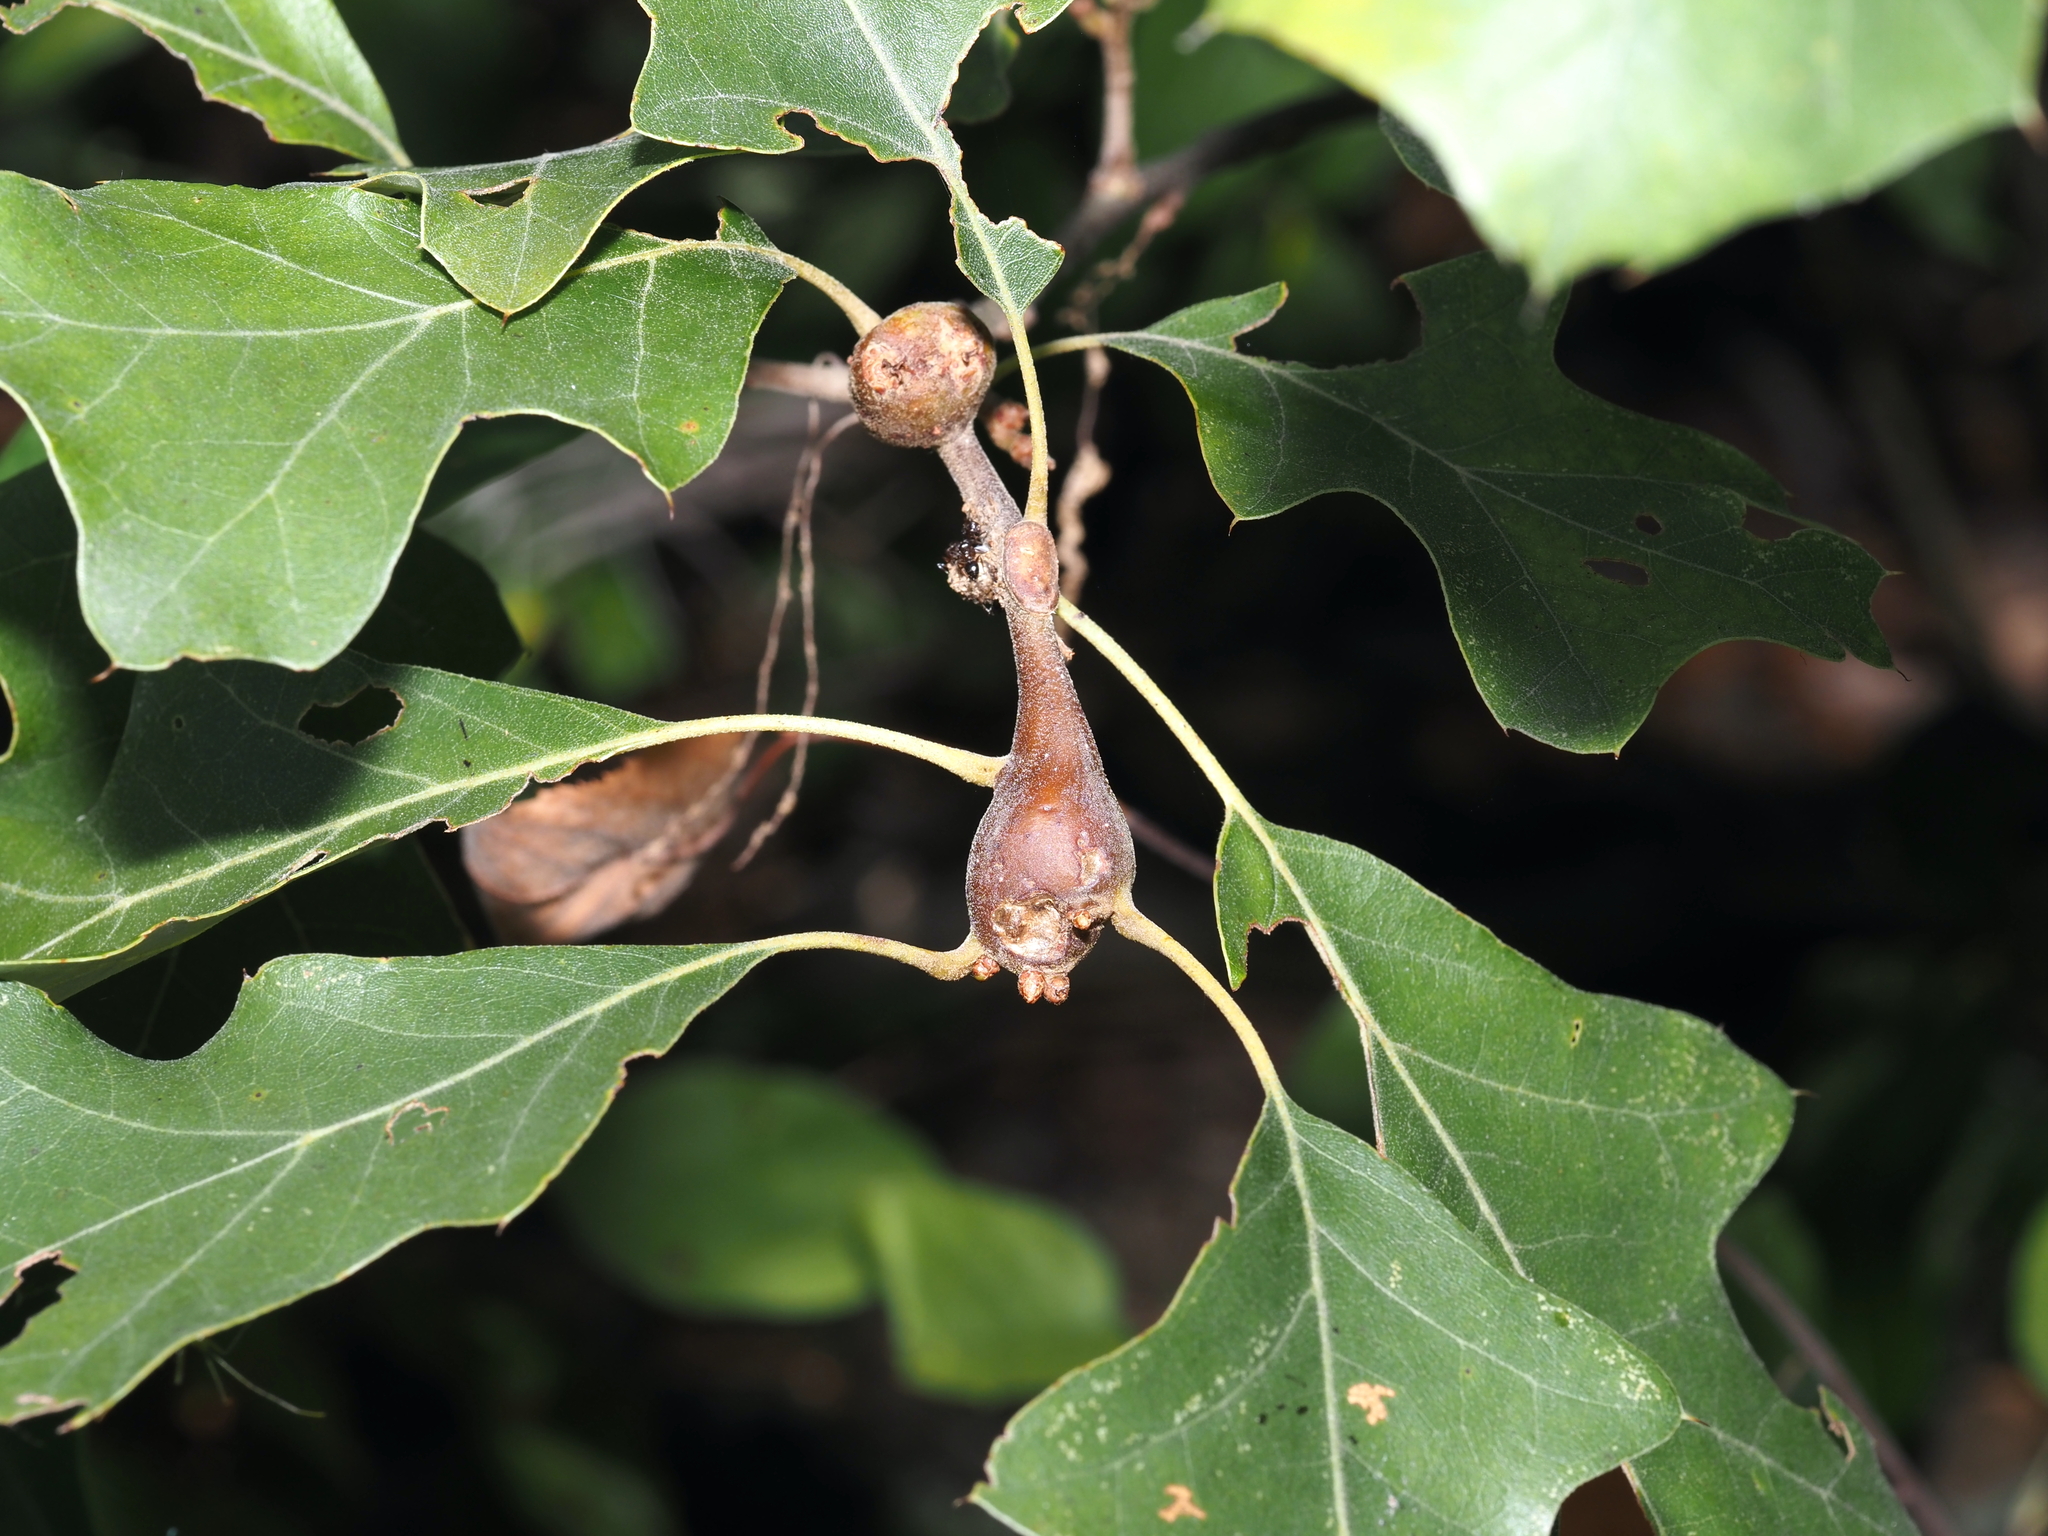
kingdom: Animalia
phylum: Arthropoda
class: Insecta
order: Hymenoptera
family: Cynipidae
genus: Zapatella
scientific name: Zapatella quercusphellos
